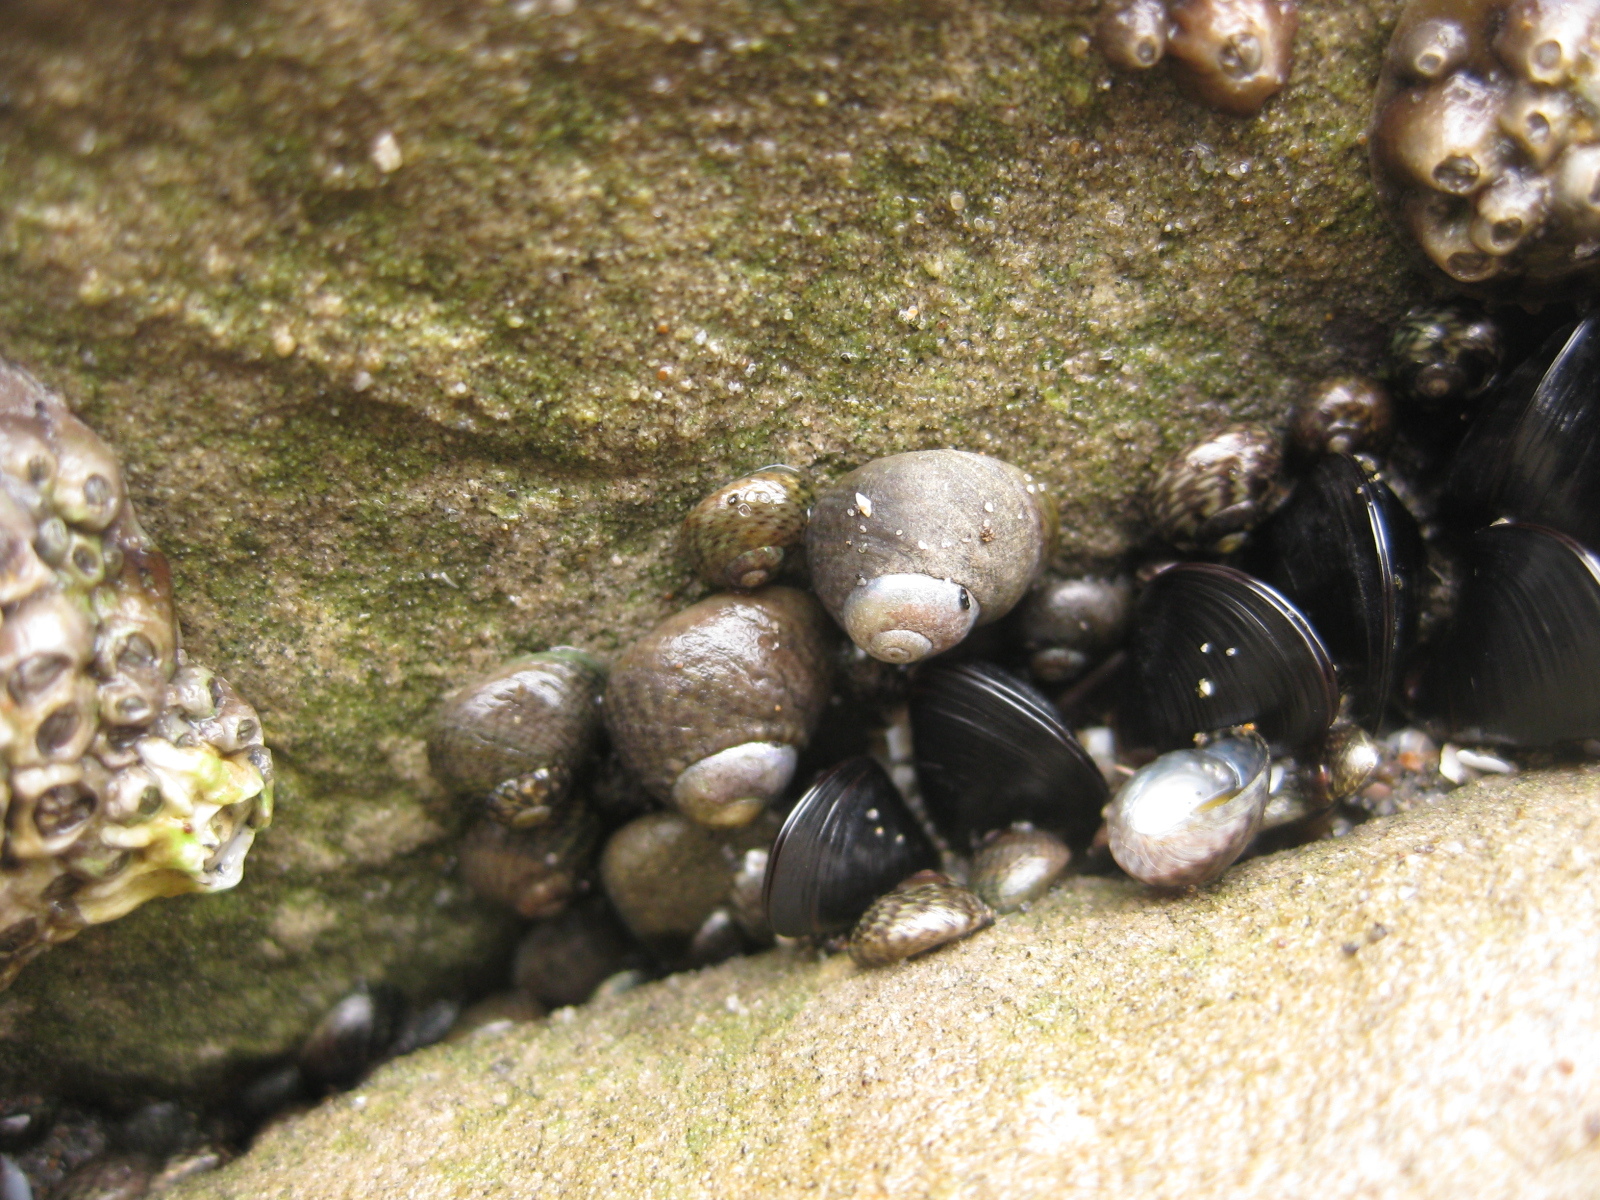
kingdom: Animalia
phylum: Mollusca
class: Gastropoda
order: Trochida
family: Trochidae
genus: Diloma
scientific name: Diloma coracinum
